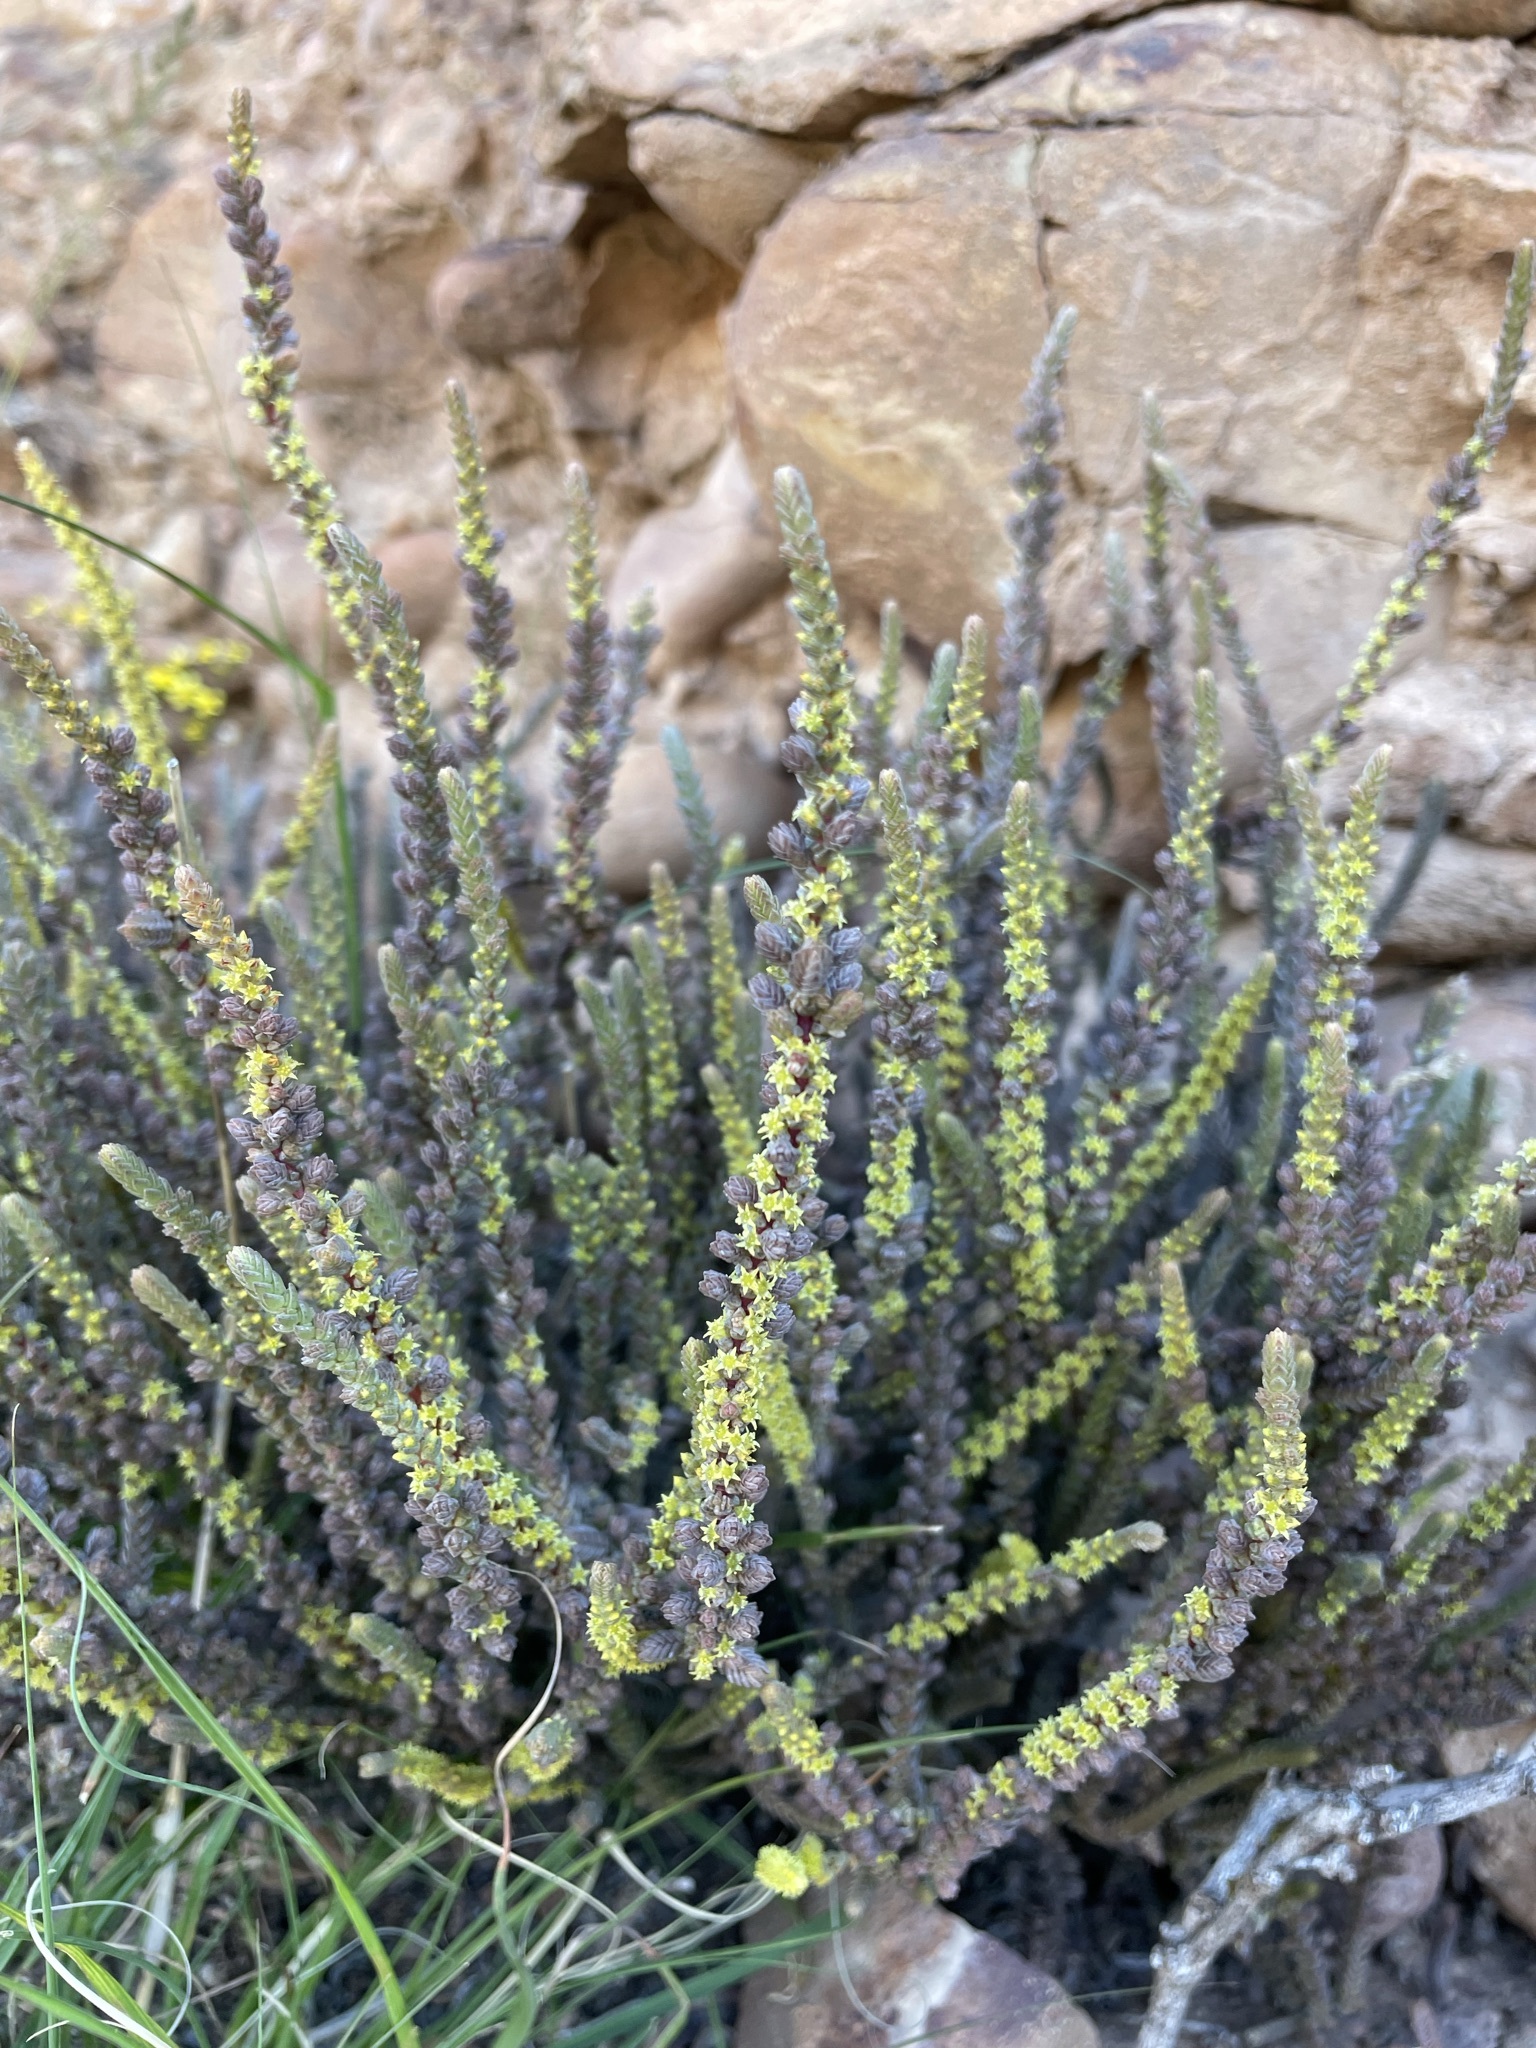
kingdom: Plantae
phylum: Tracheophyta
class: Magnoliopsida
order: Saxifragales
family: Crassulaceae
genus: Crassula
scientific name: Crassula muscosa
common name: Toy-cypress
